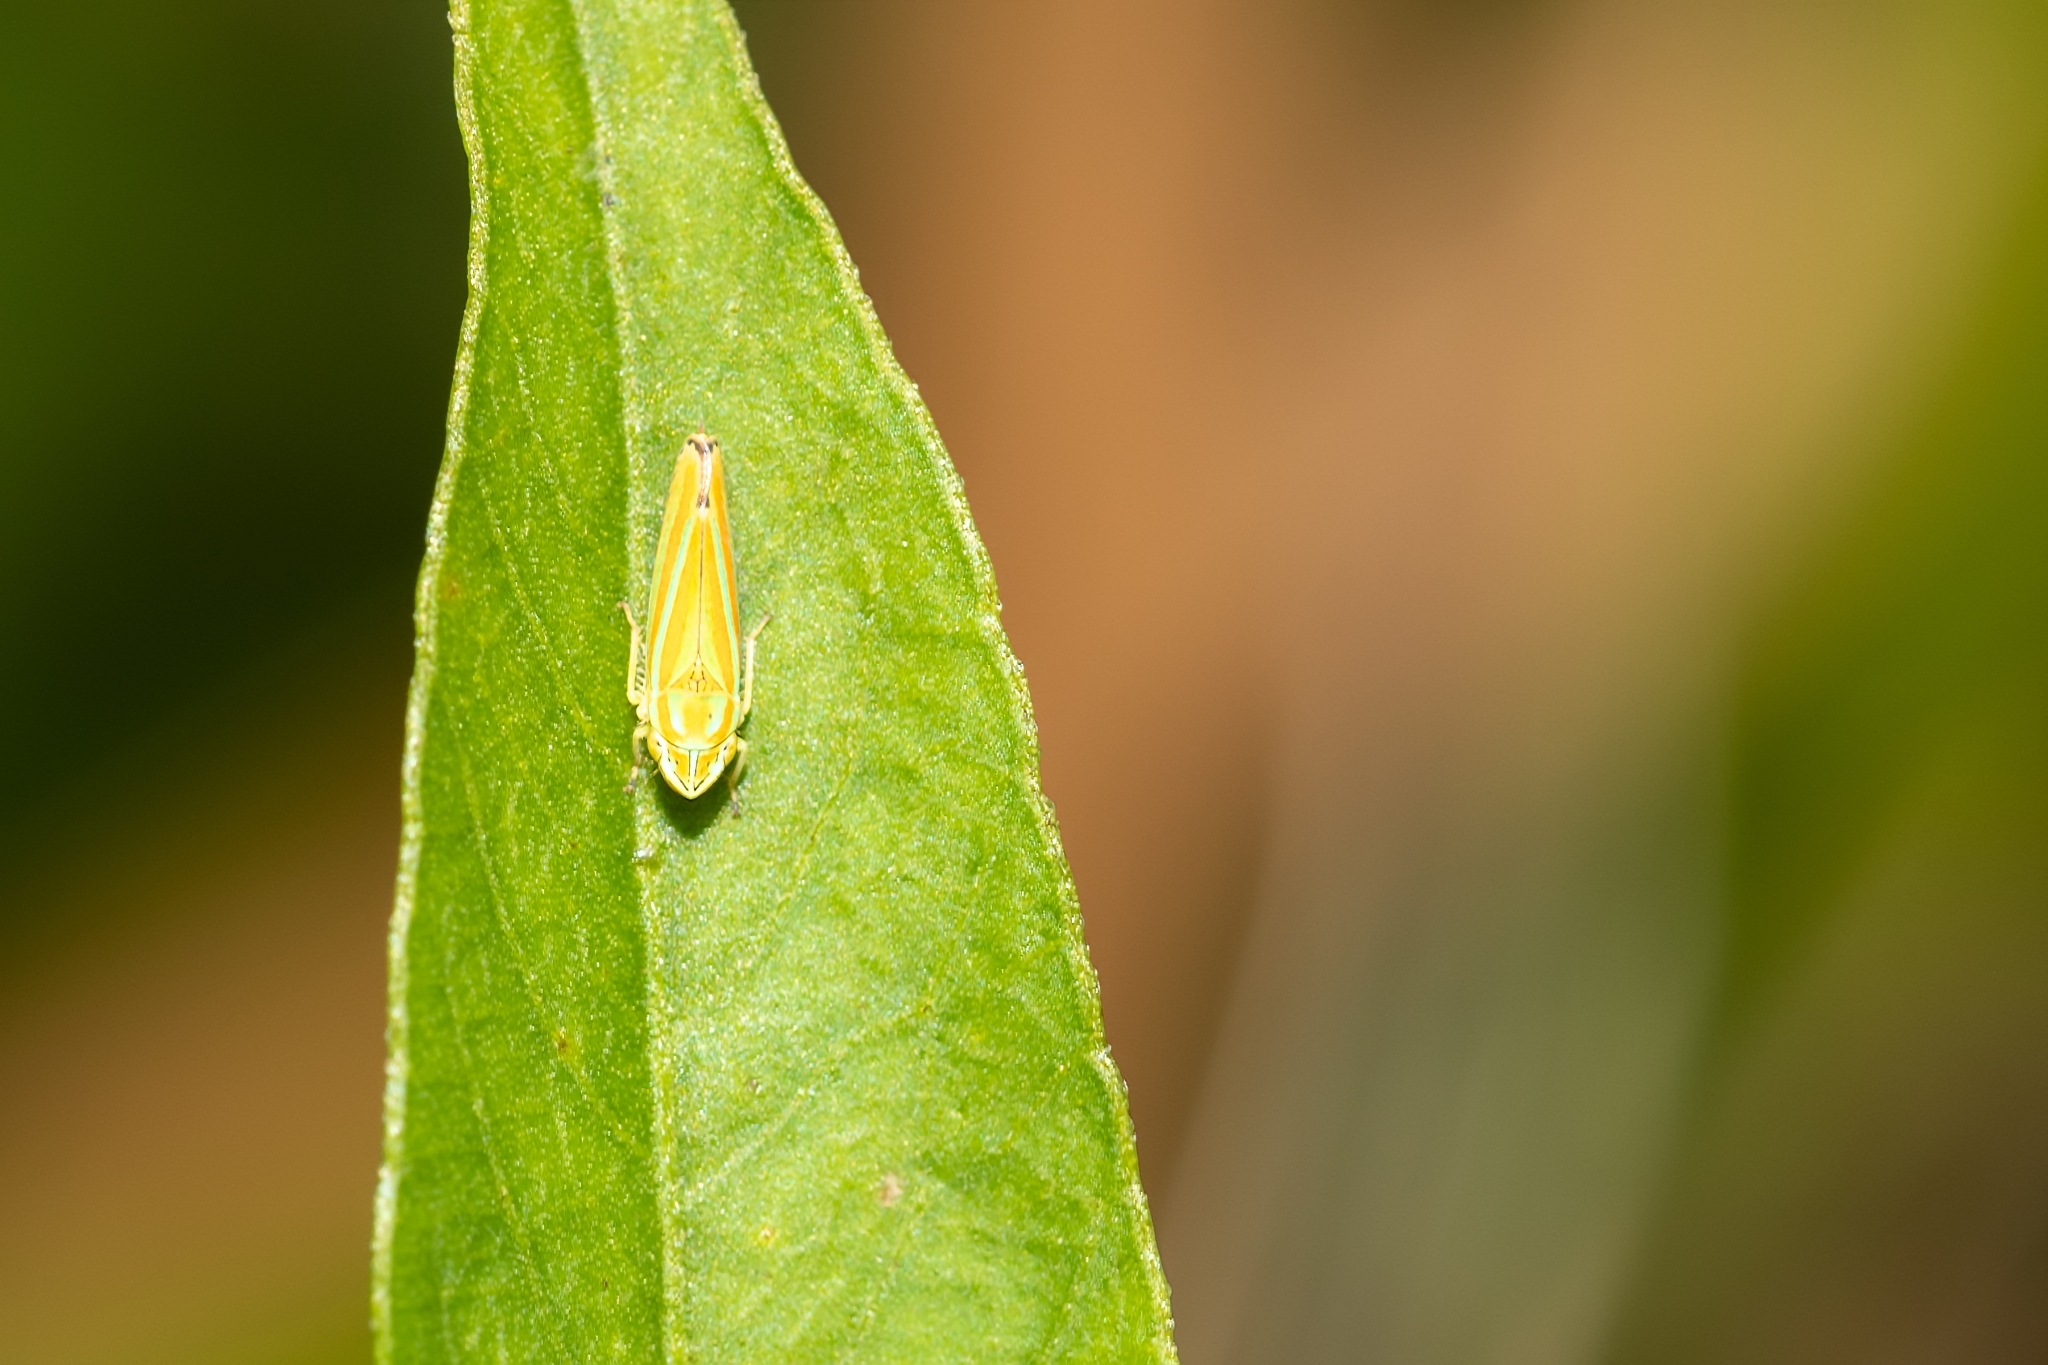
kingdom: Animalia
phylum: Arthropoda
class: Insecta
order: Hemiptera
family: Cicadellidae
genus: Graphocephala
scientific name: Graphocephala versuta
